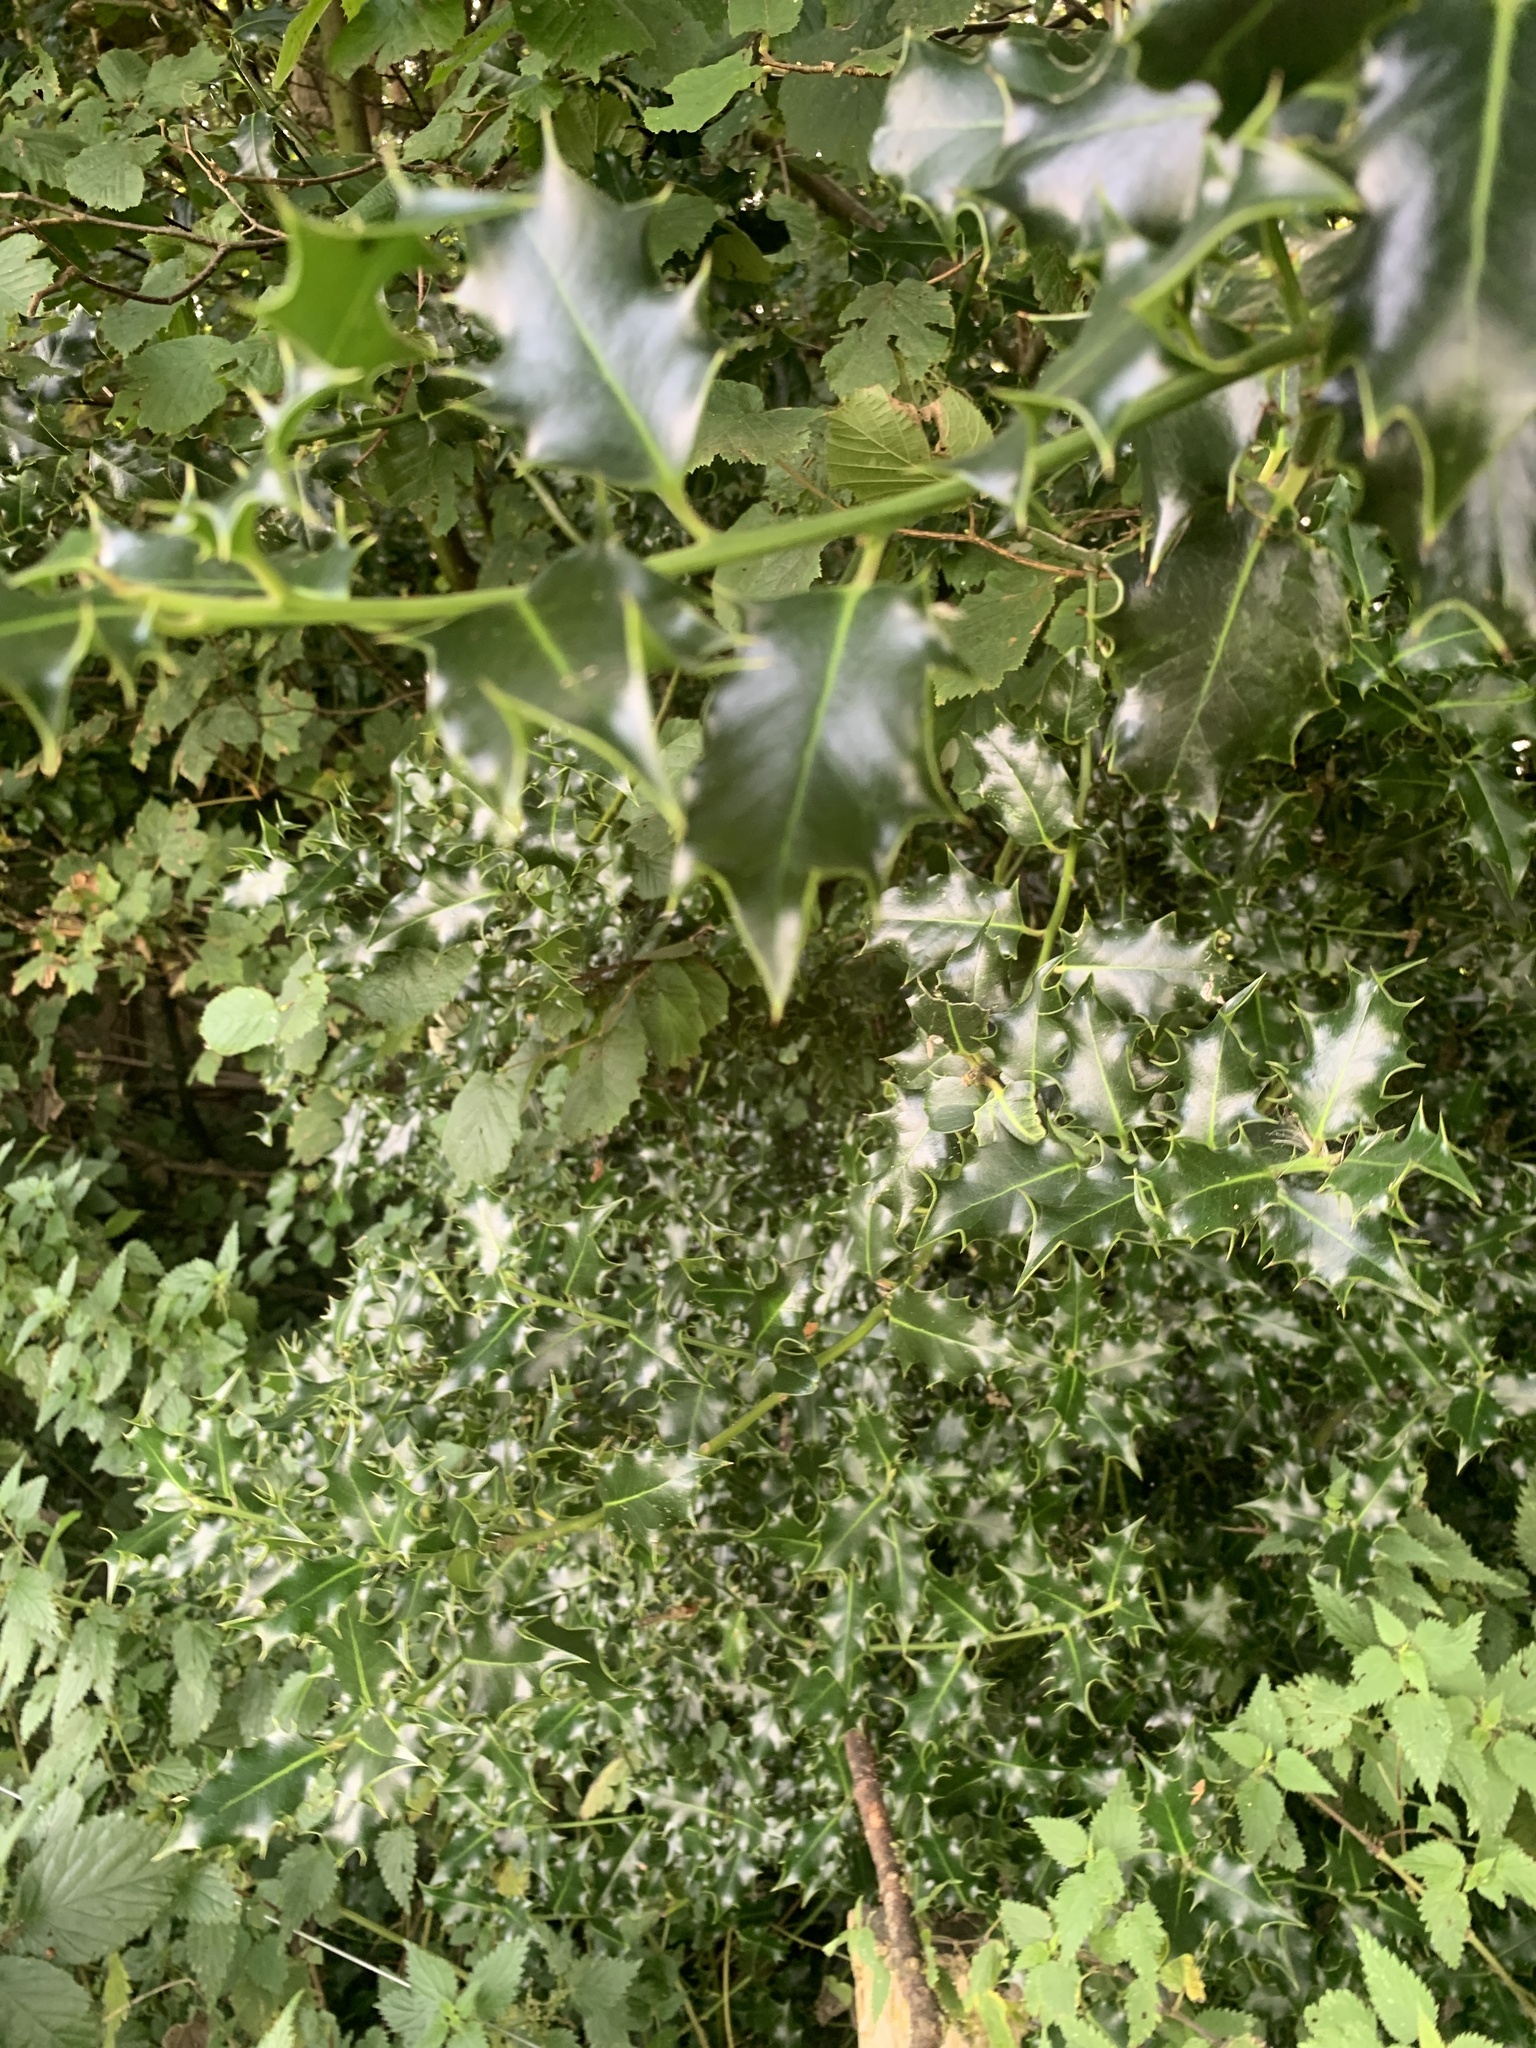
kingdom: Plantae
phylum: Tracheophyta
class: Magnoliopsida
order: Aquifoliales
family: Aquifoliaceae
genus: Ilex
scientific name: Ilex aquifolium
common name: English holly
